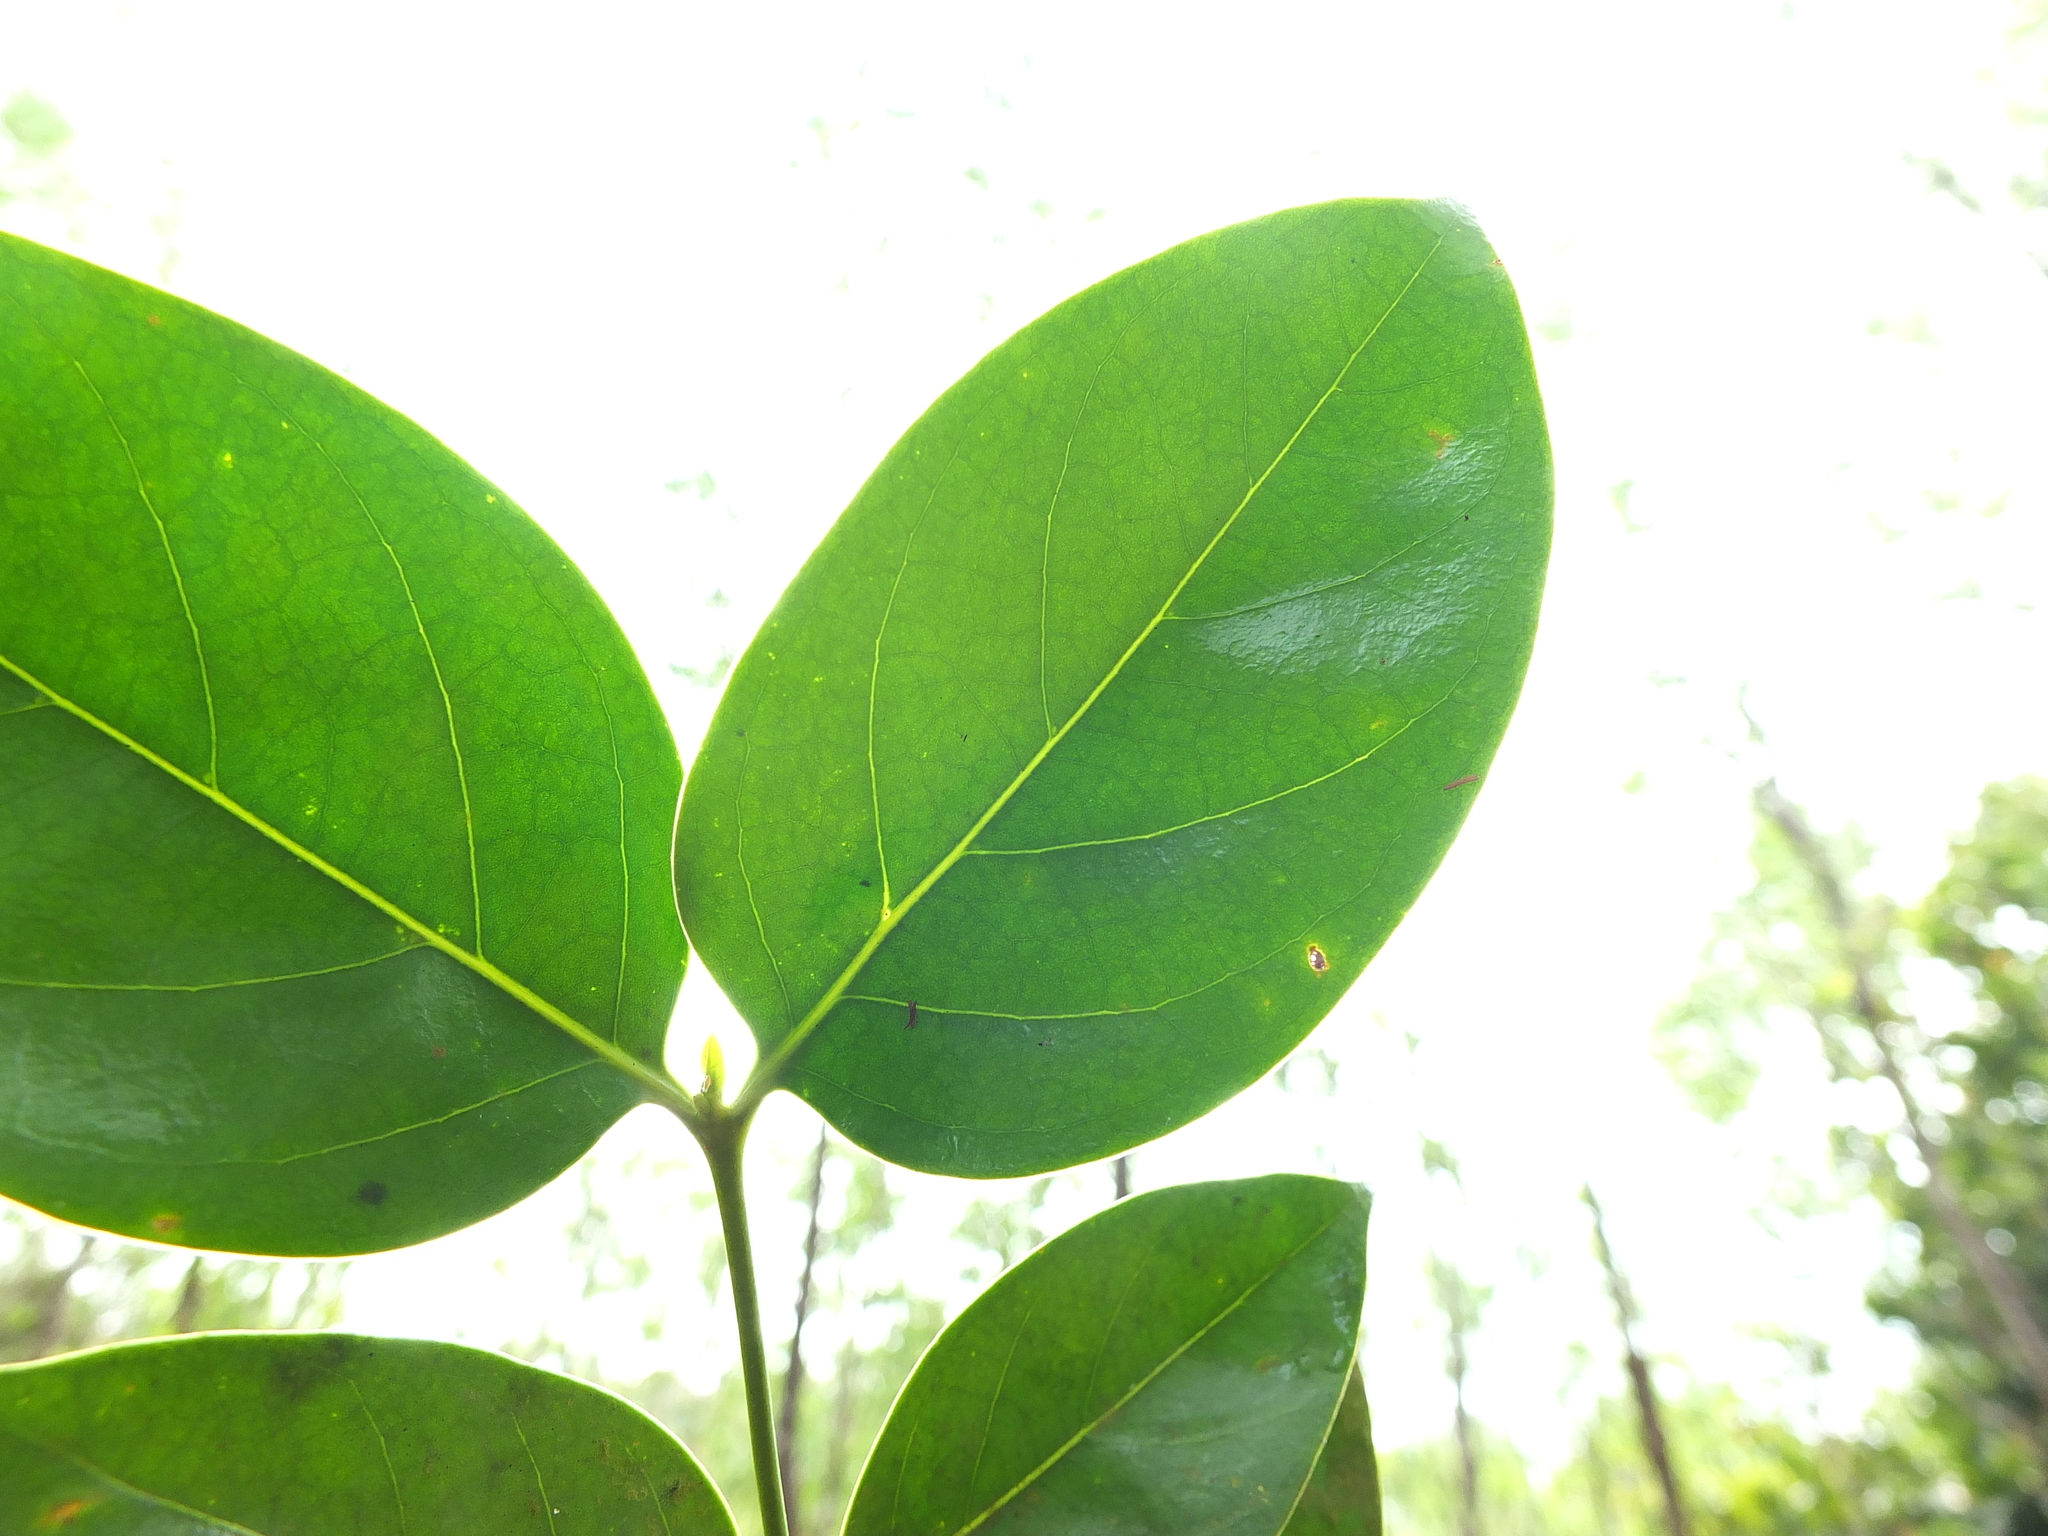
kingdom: Plantae
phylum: Tracheophyta
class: Magnoliopsida
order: Gentianales
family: Rubiaceae
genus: Psydrax
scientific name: Psydrax umbellatus
